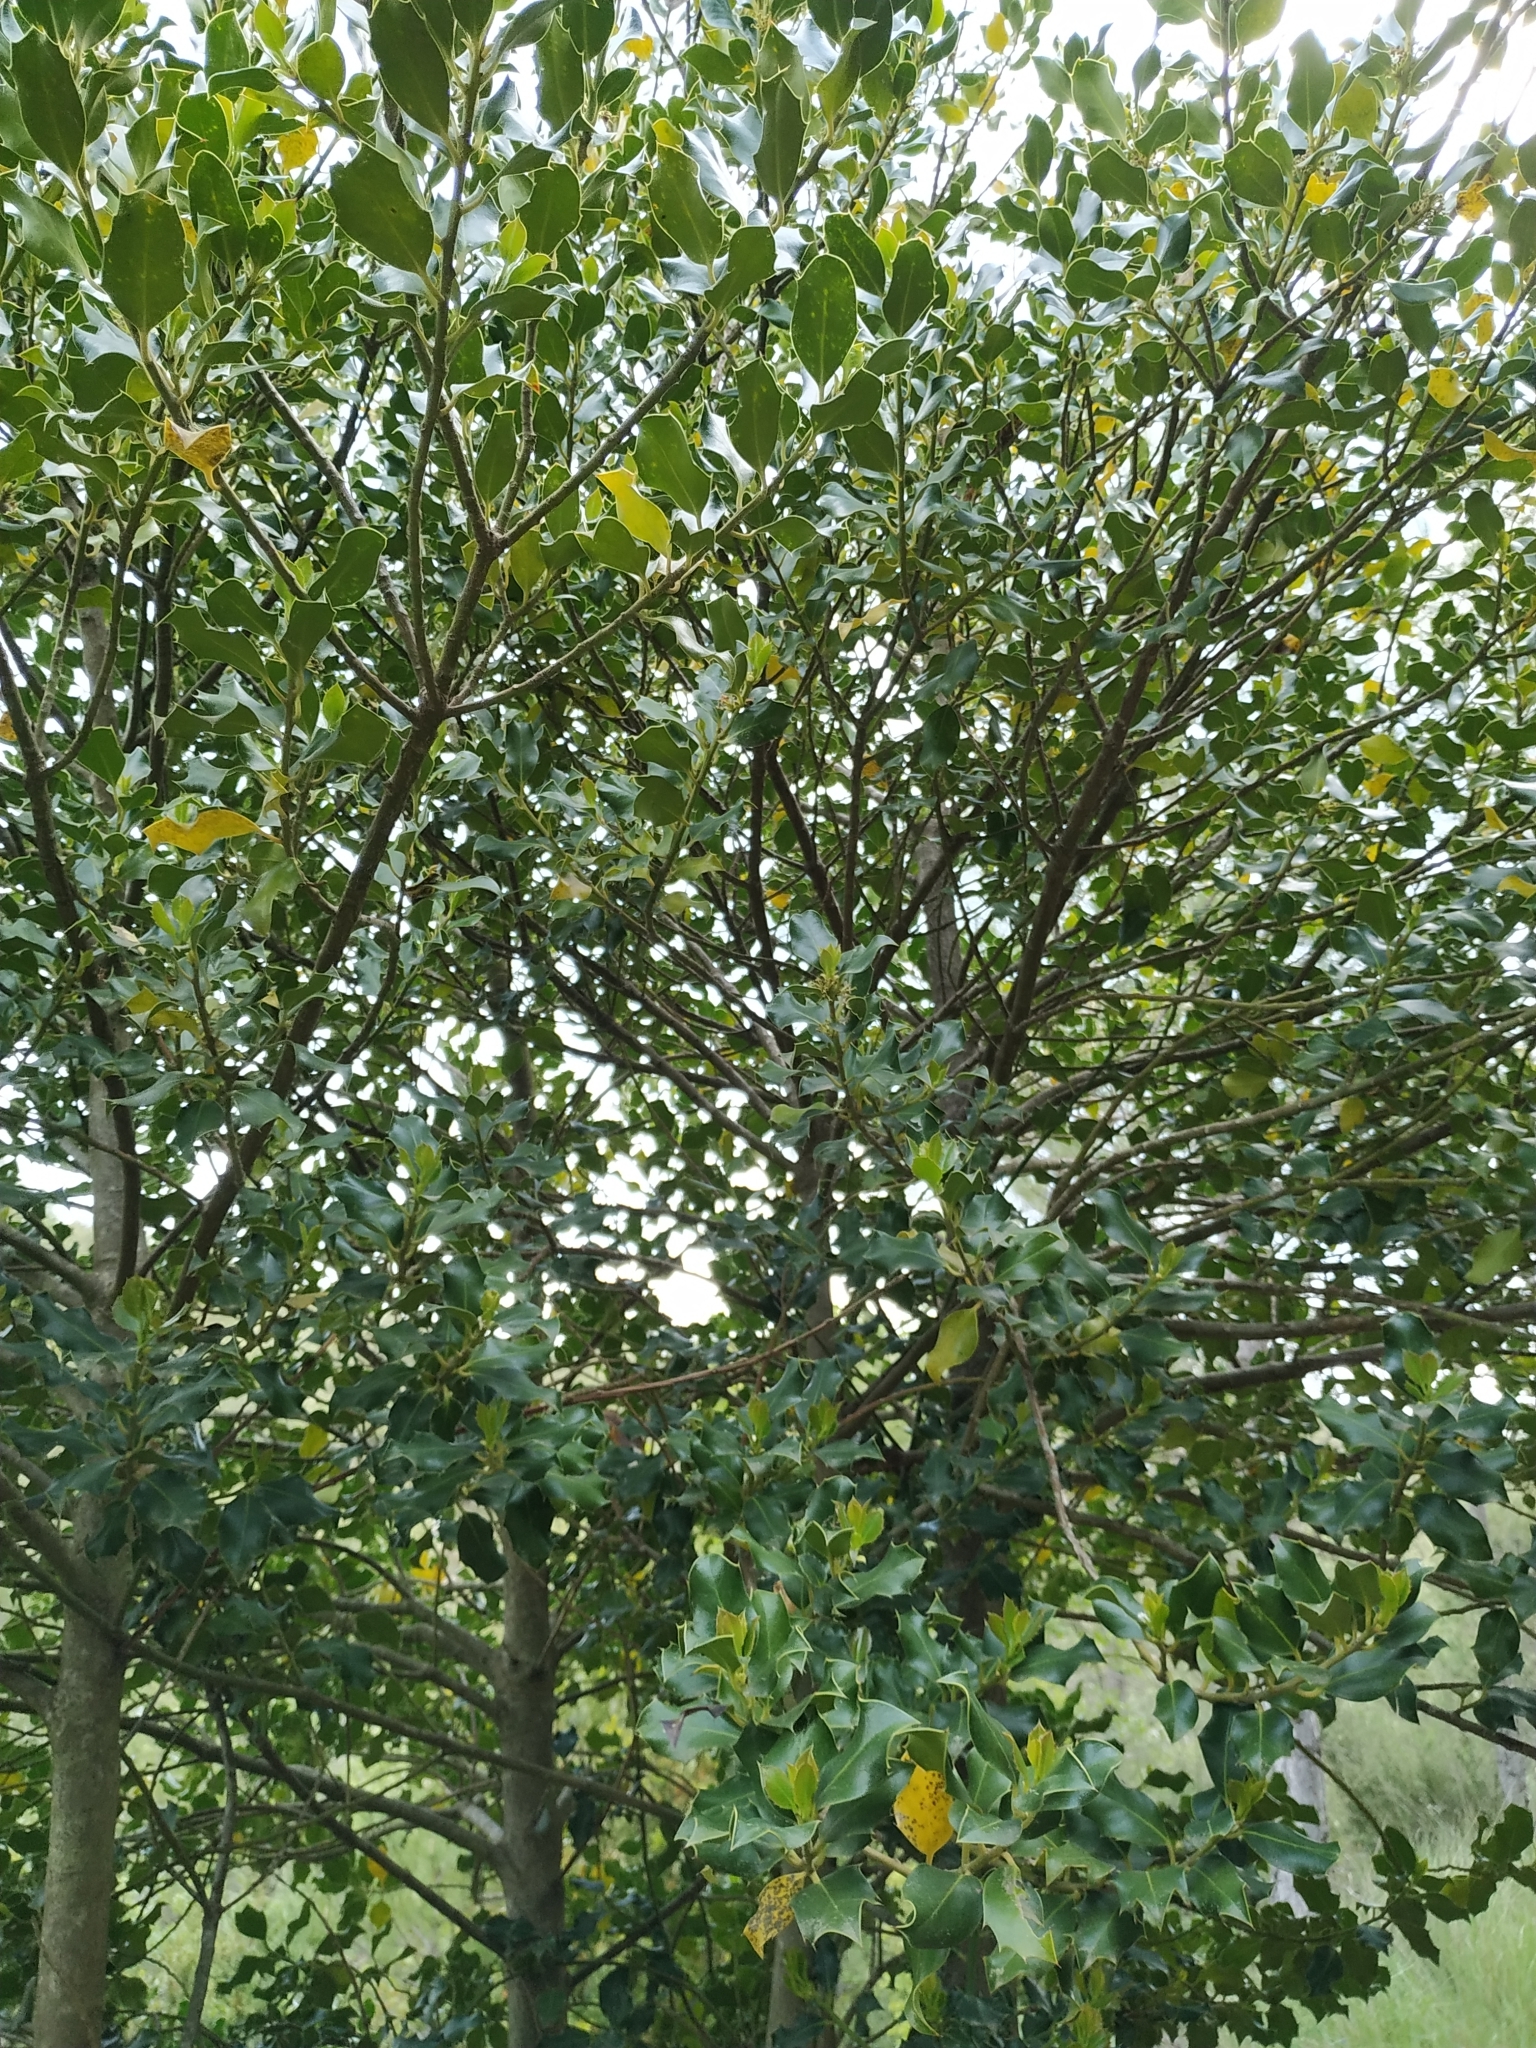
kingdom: Plantae
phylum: Tracheophyta
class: Magnoliopsida
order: Aquifoliales
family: Aquifoliaceae
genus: Ilex
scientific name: Ilex aquifolium
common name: English holly
